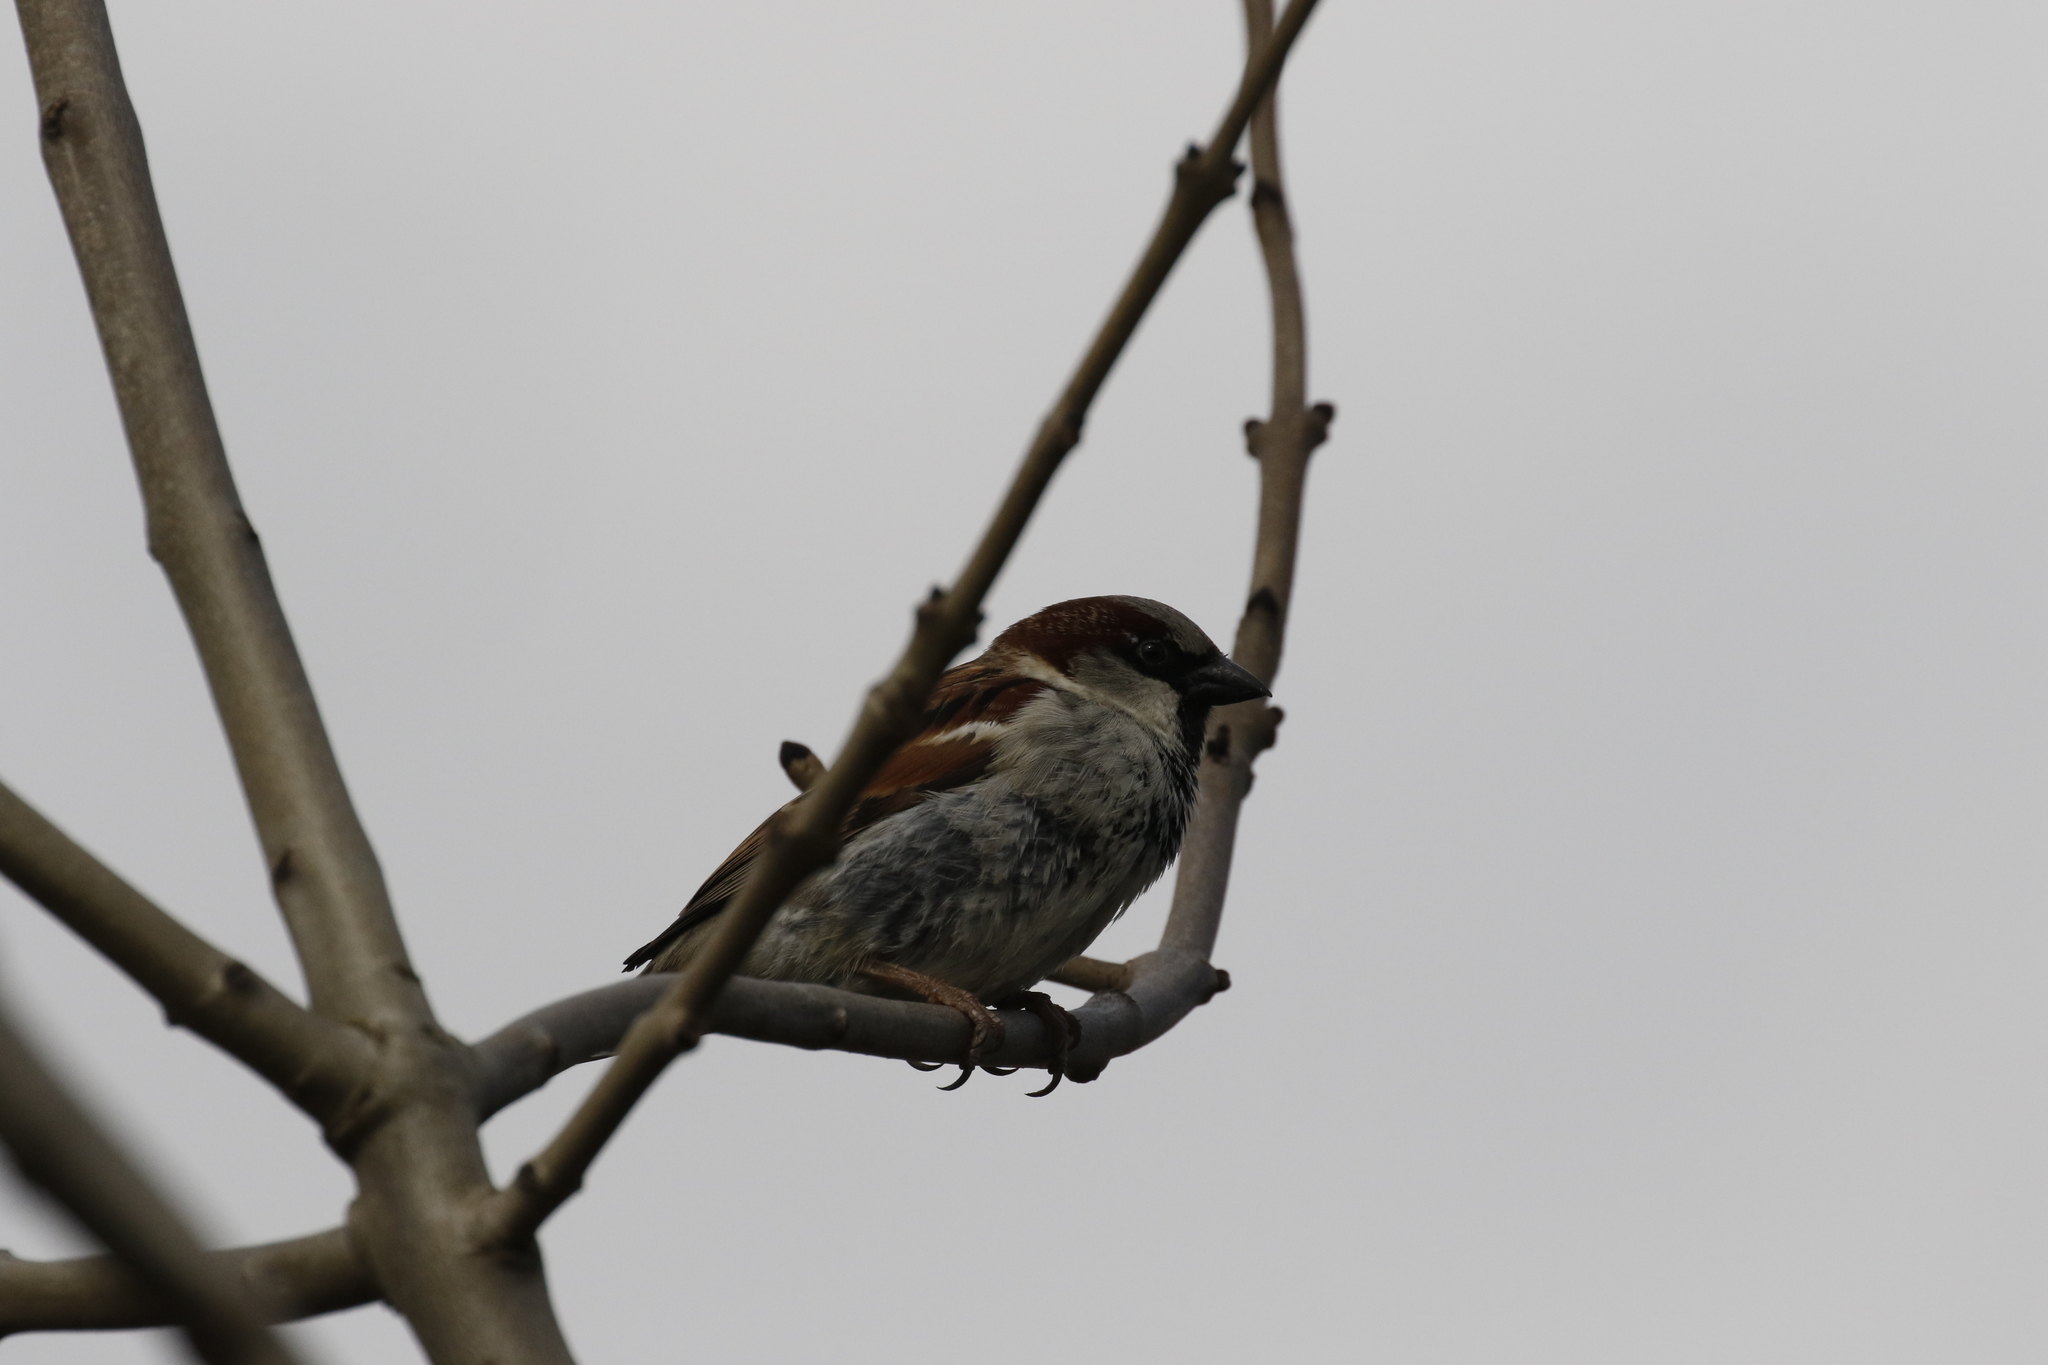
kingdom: Animalia
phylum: Chordata
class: Aves
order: Passeriformes
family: Passeridae
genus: Passer
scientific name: Passer domesticus
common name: House sparrow
